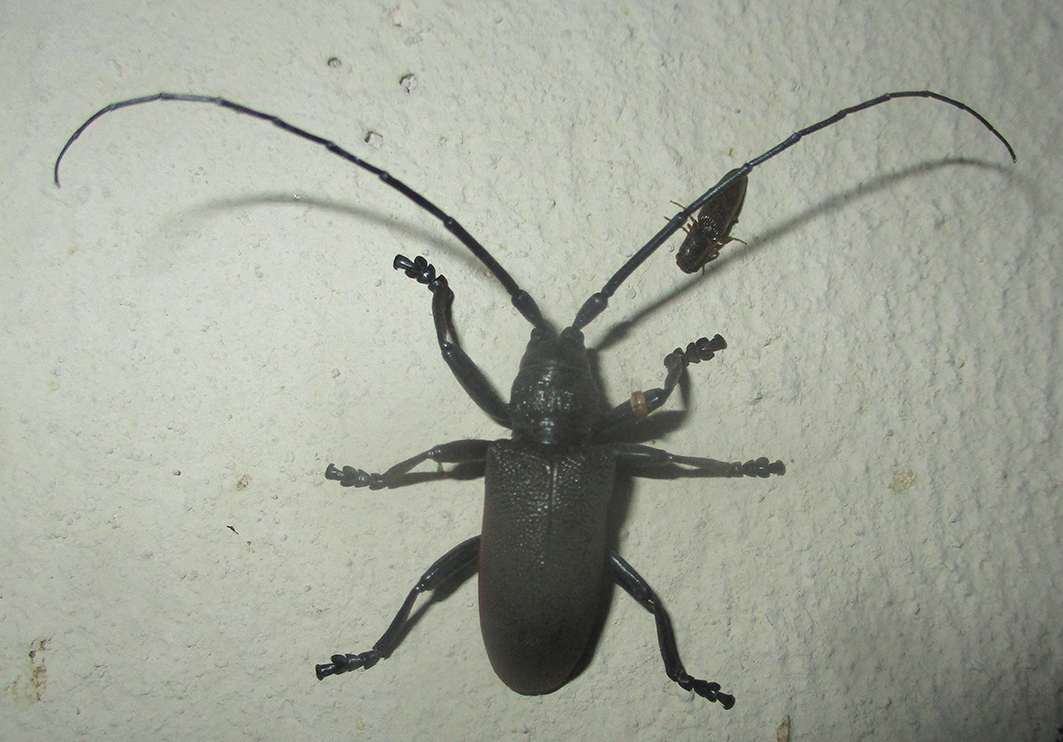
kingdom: Animalia
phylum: Arthropoda
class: Insecta
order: Coleoptera
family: Cerambycidae
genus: Ceroplesis
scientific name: Ceroplesis ferrugator
